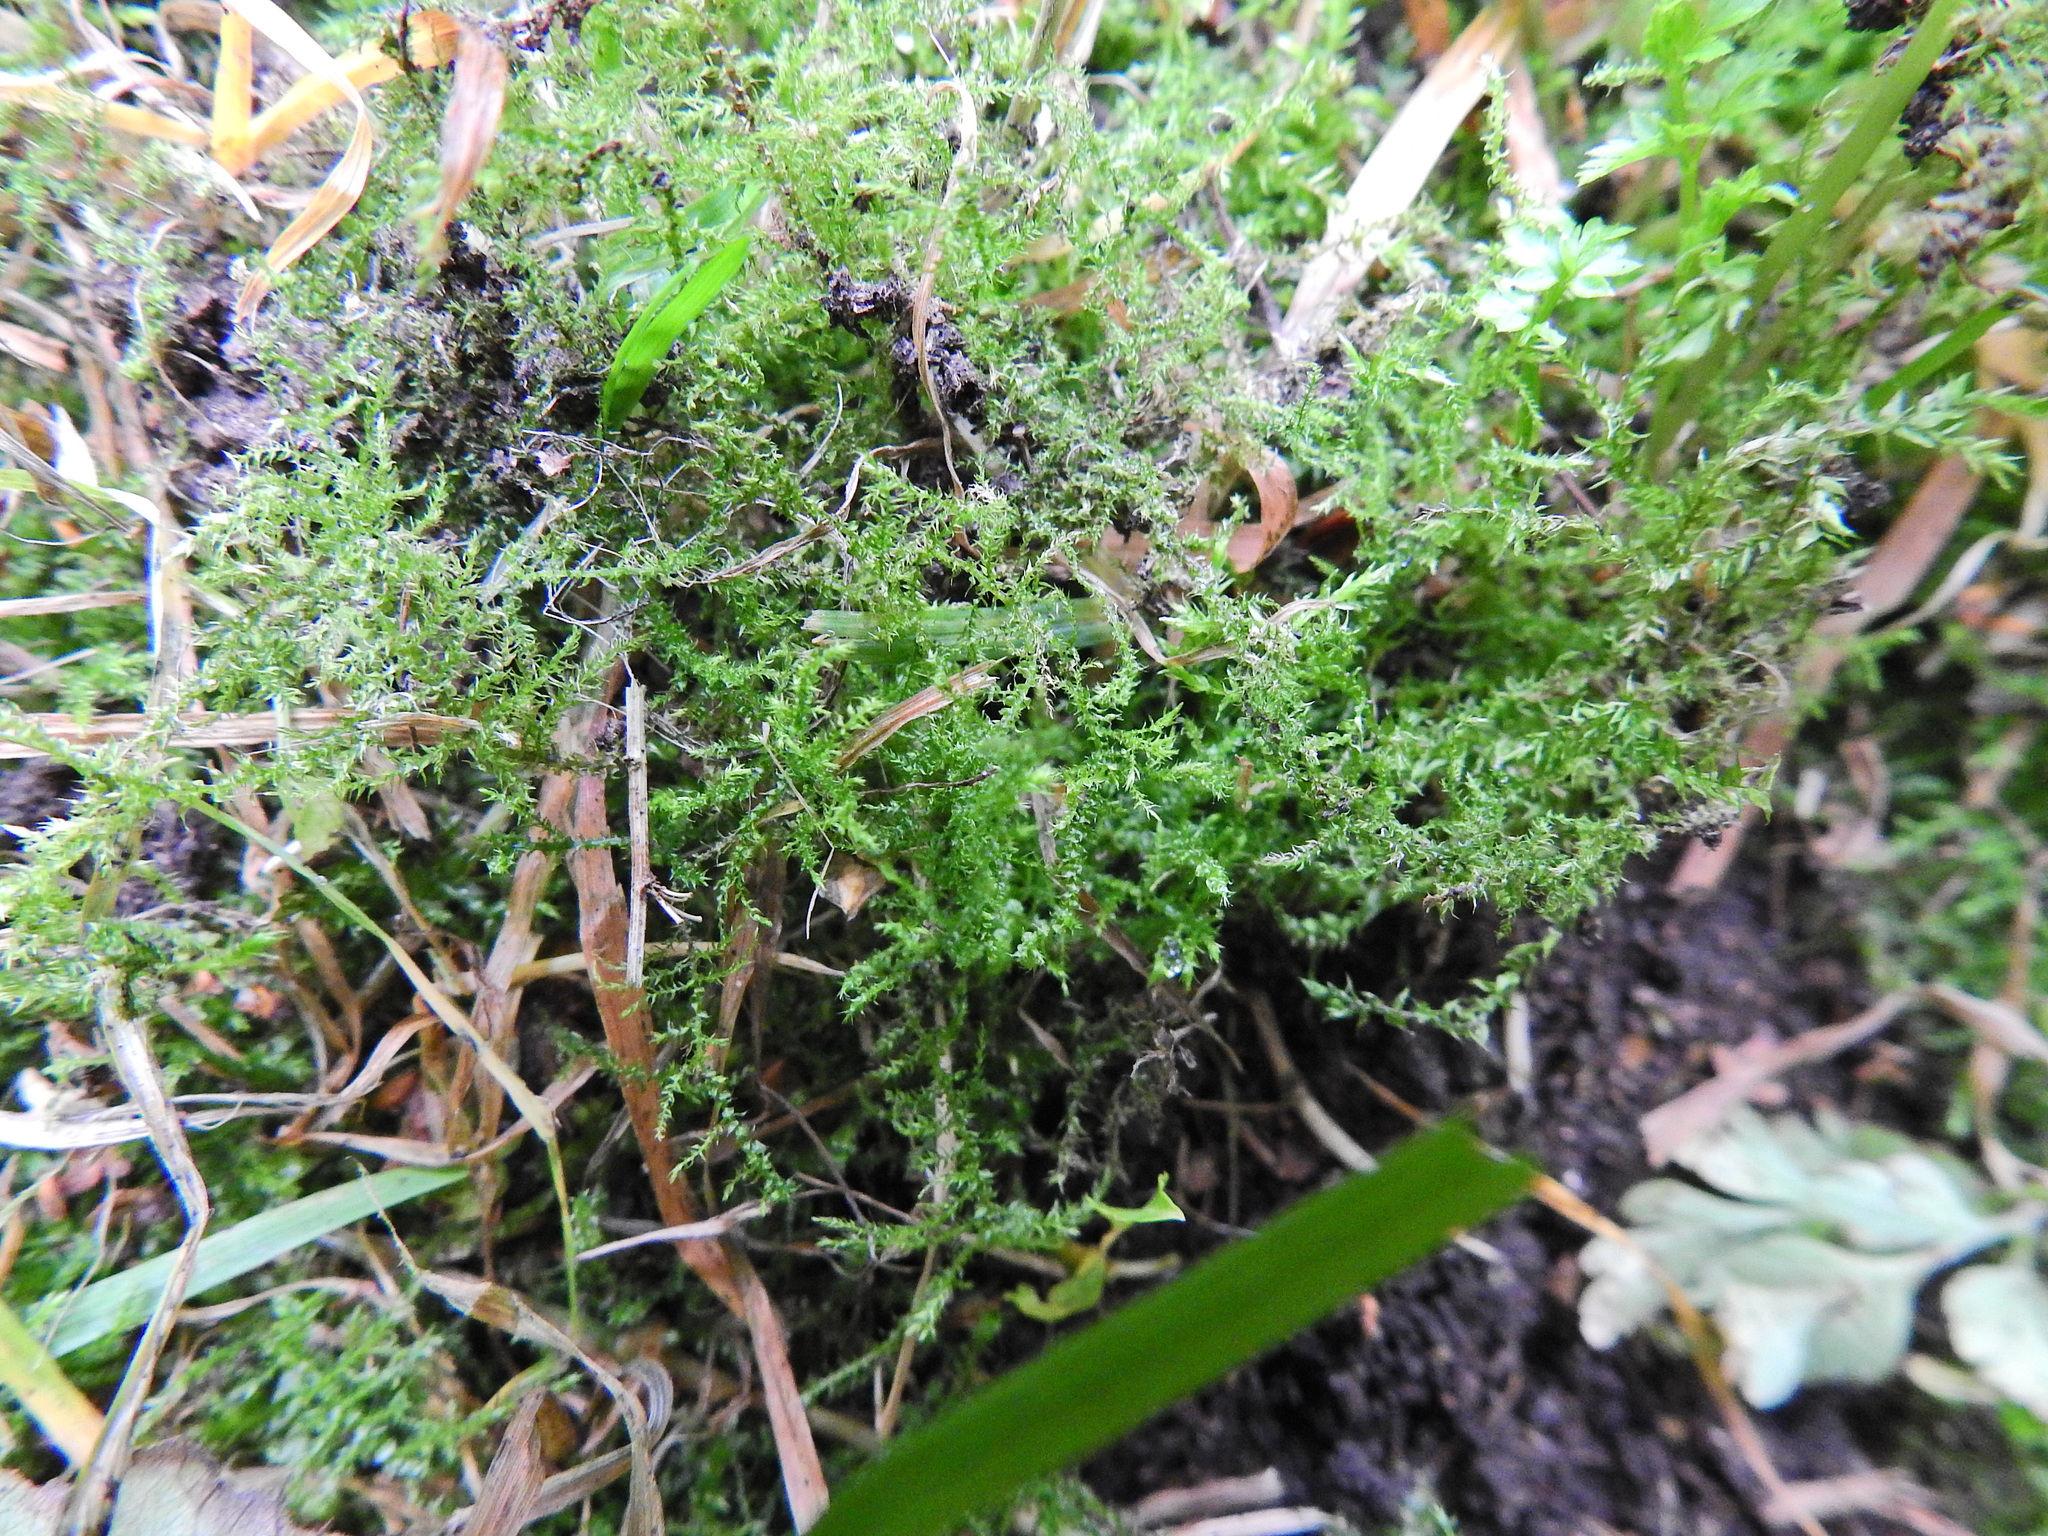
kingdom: Plantae
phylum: Bryophyta
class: Bryopsida
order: Hypnales
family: Brachytheciaceae
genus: Kindbergia
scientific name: Kindbergia praelonga
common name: Slender beaked moss
